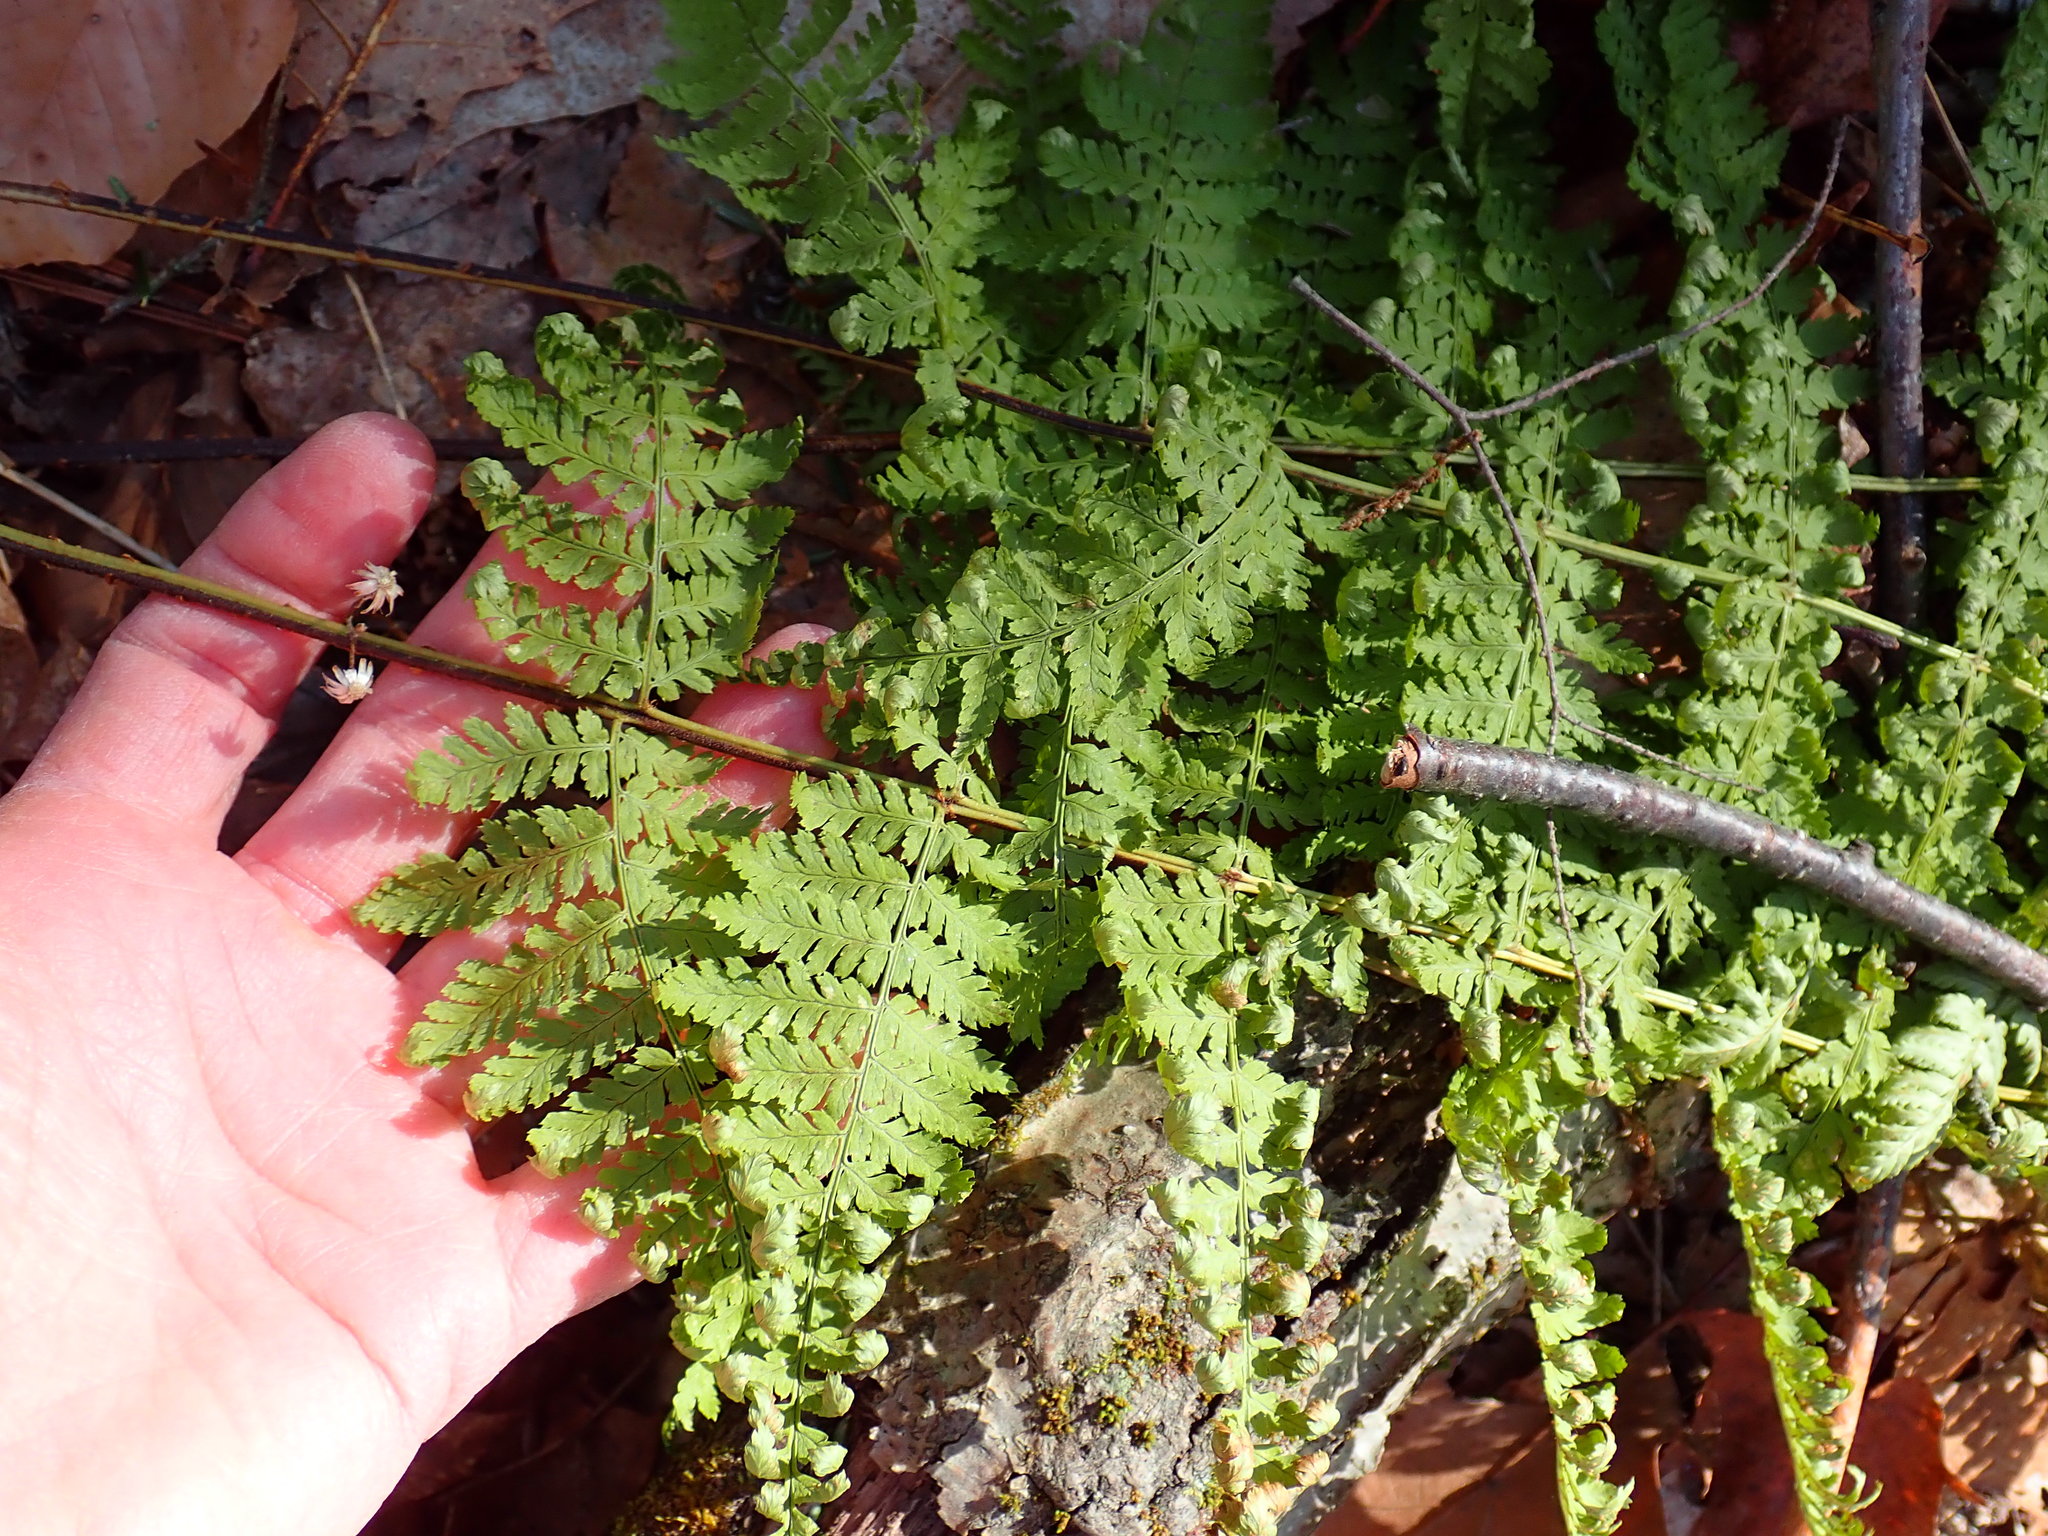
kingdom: Plantae
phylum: Tracheophyta
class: Polypodiopsida
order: Polypodiales
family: Dryopteridaceae
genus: Dryopteris
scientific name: Dryopteris intermedia
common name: Evergreen wood fern
